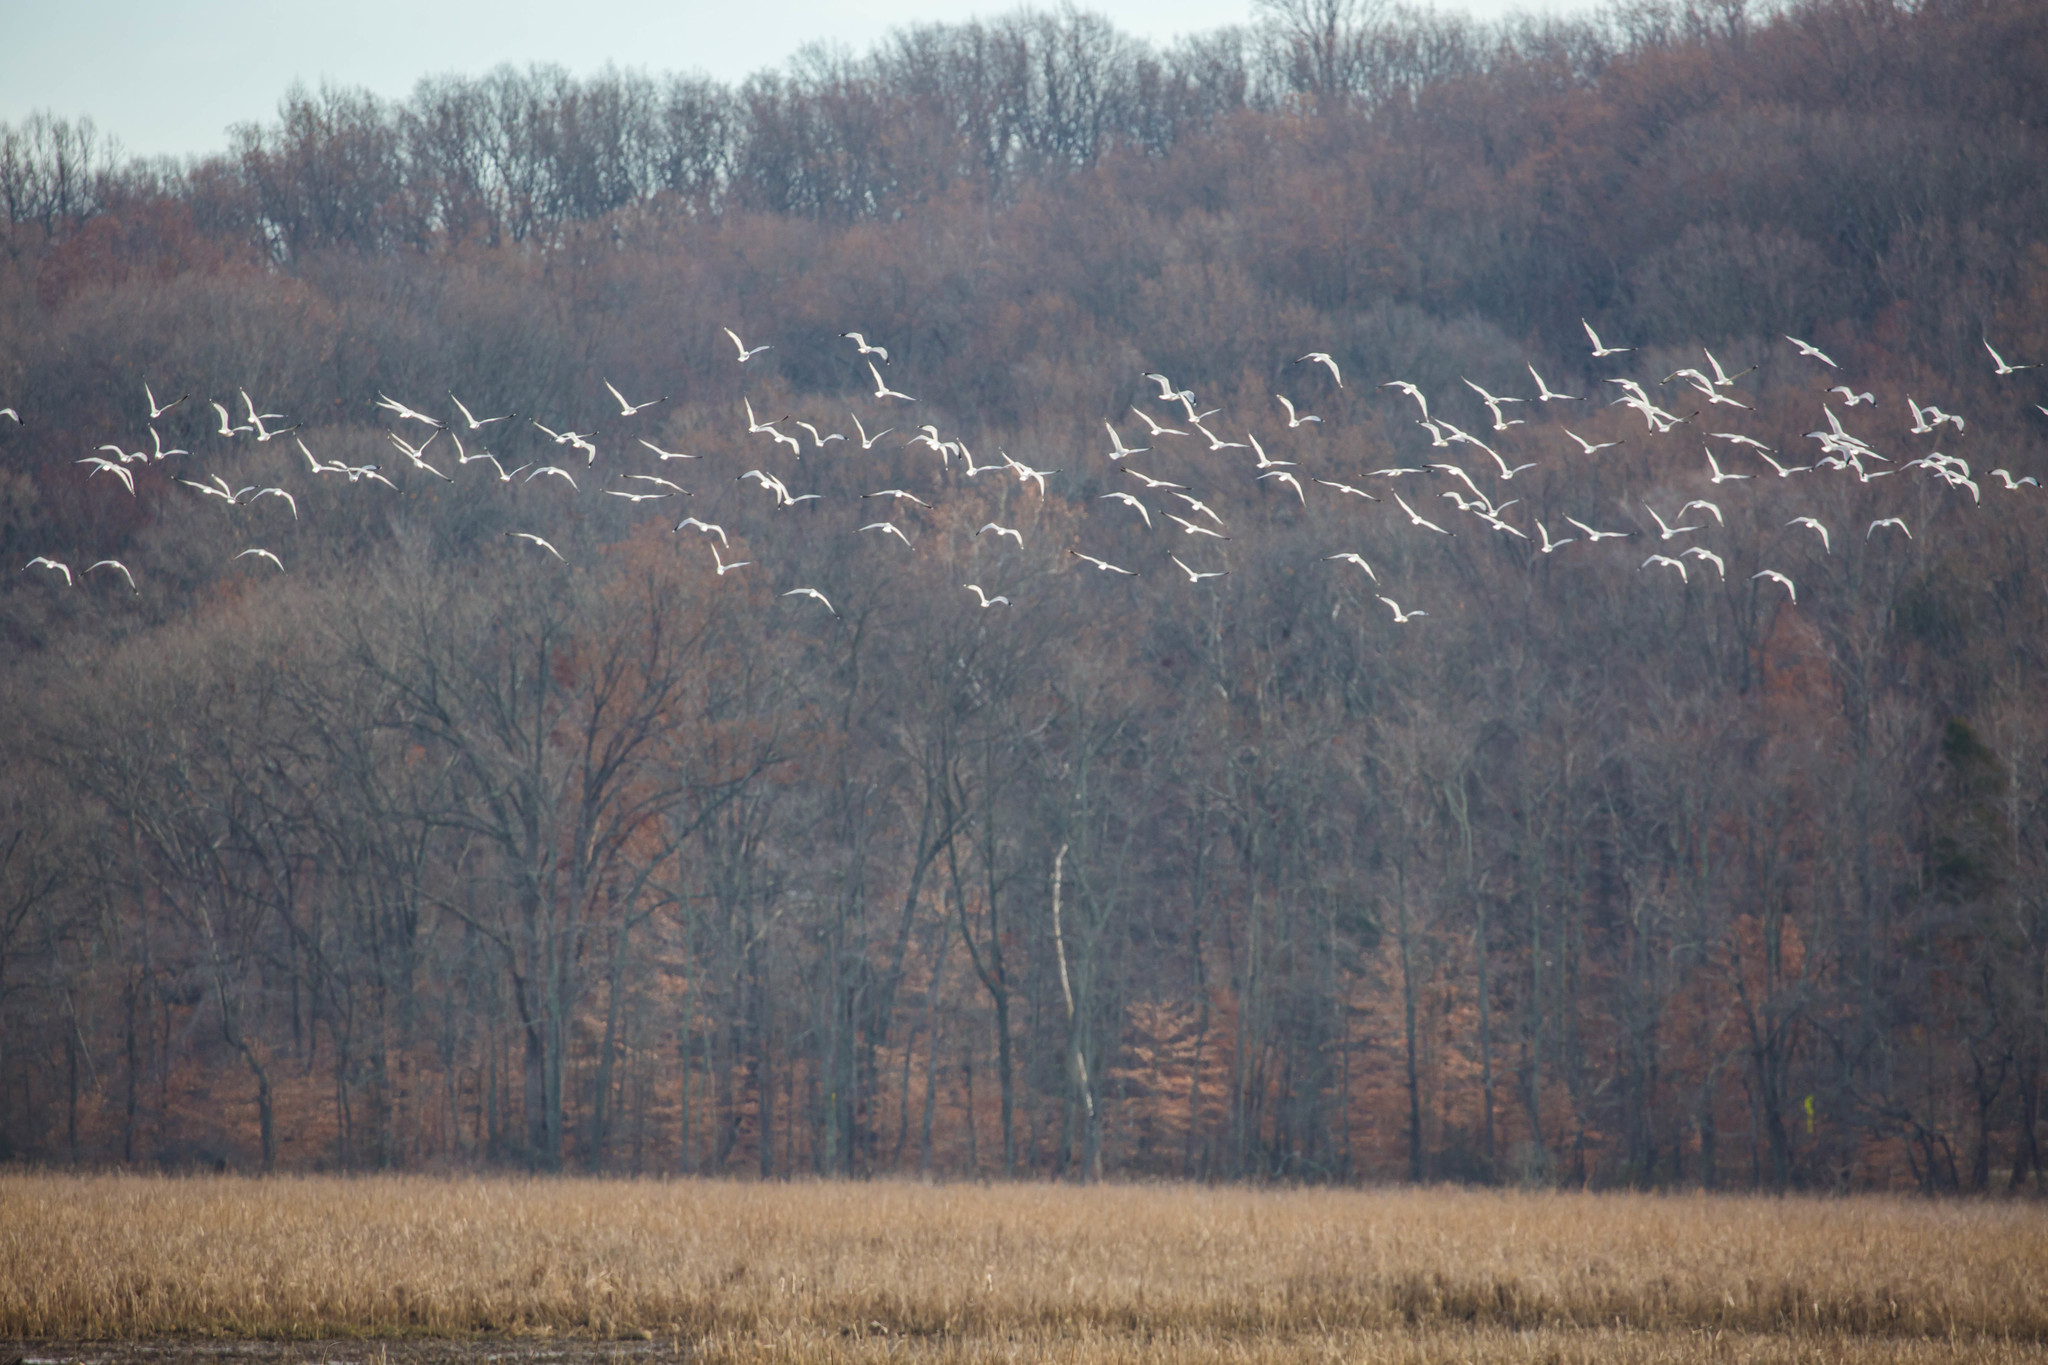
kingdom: Animalia
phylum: Chordata
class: Aves
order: Charadriiformes
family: Laridae
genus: Larus
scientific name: Larus delawarensis
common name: Ring-billed gull
